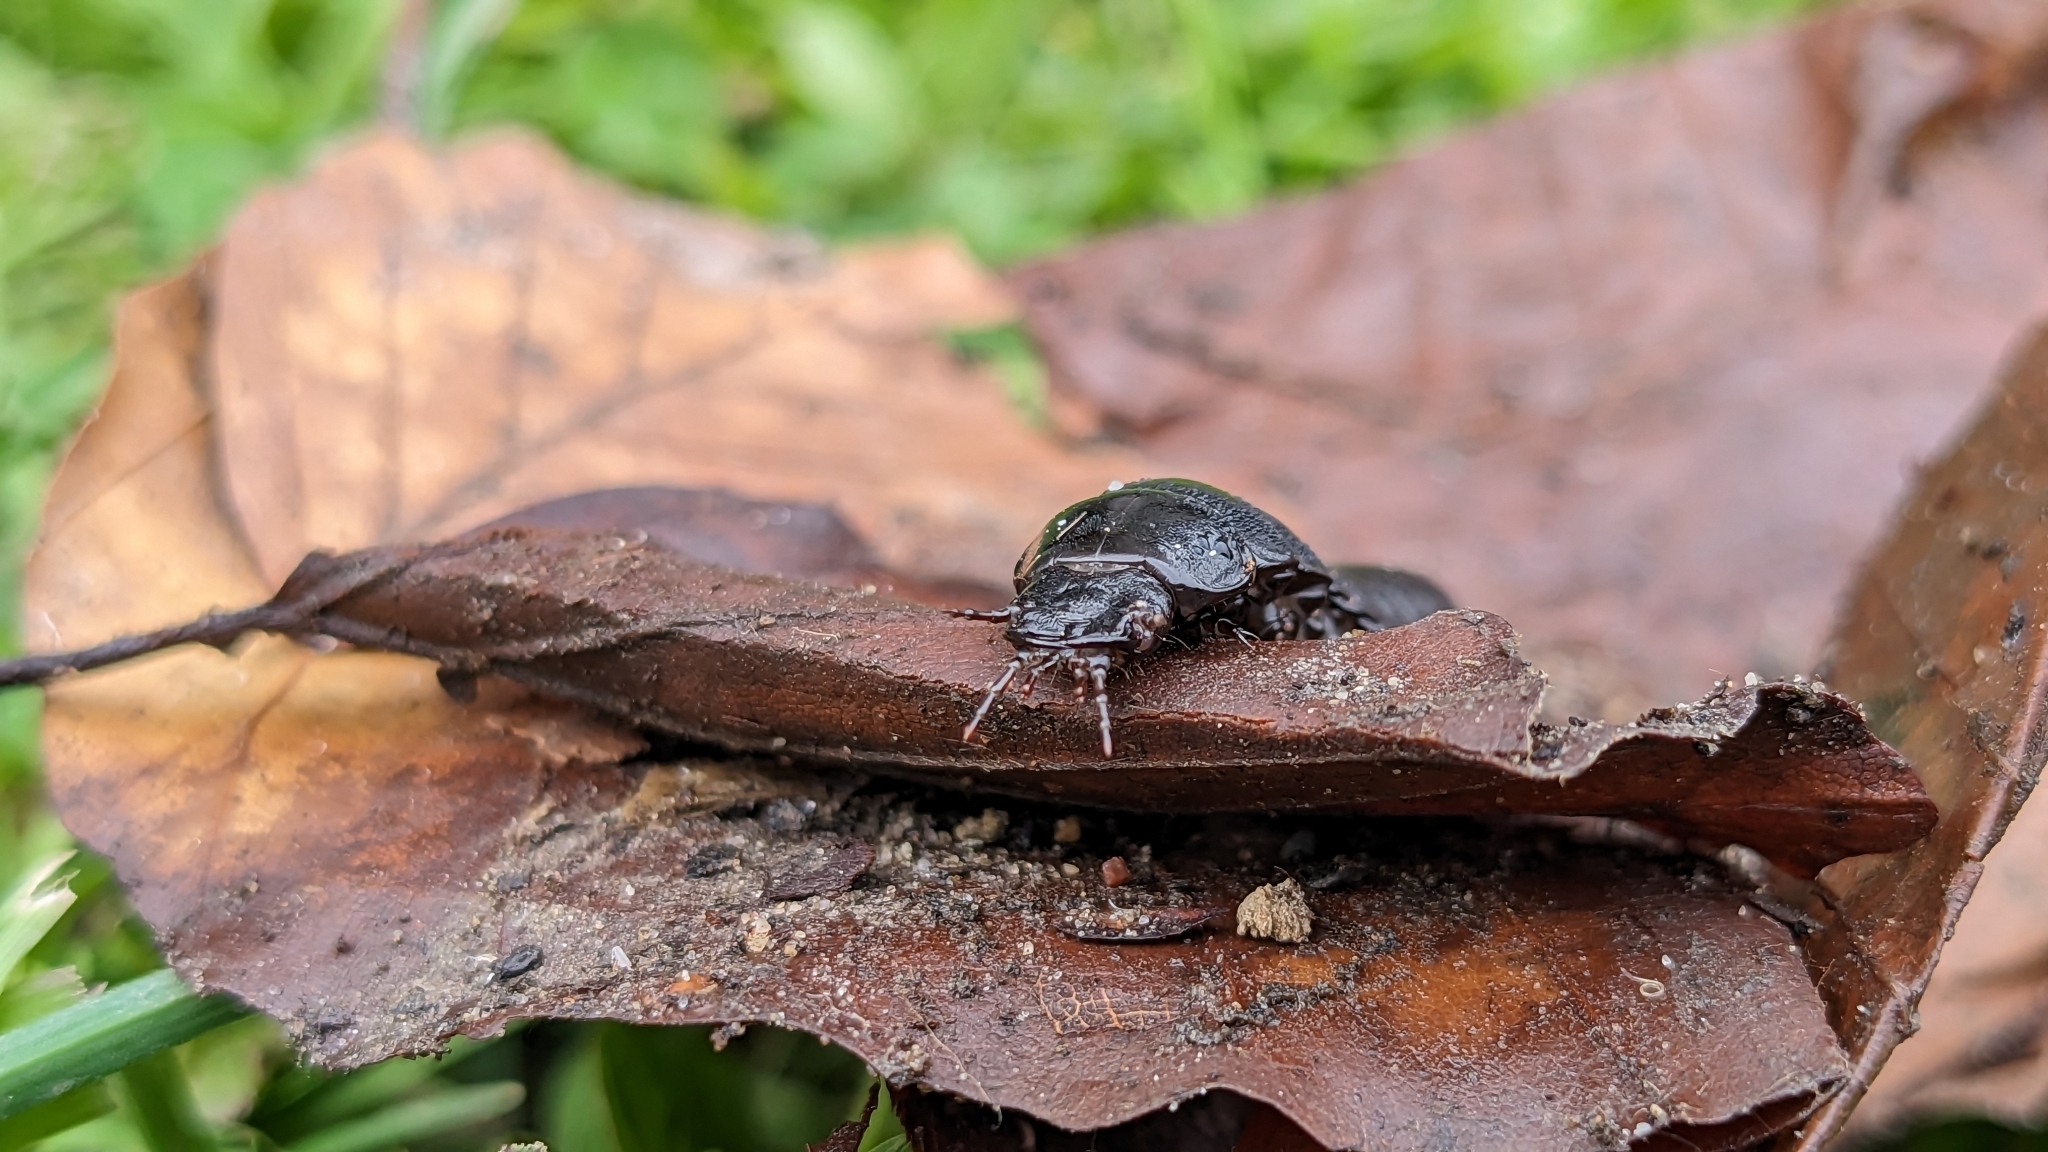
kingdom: Animalia
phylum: Arthropoda
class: Insecta
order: Coleoptera
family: Carabidae
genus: Carabus
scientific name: Carabus coriaceus
